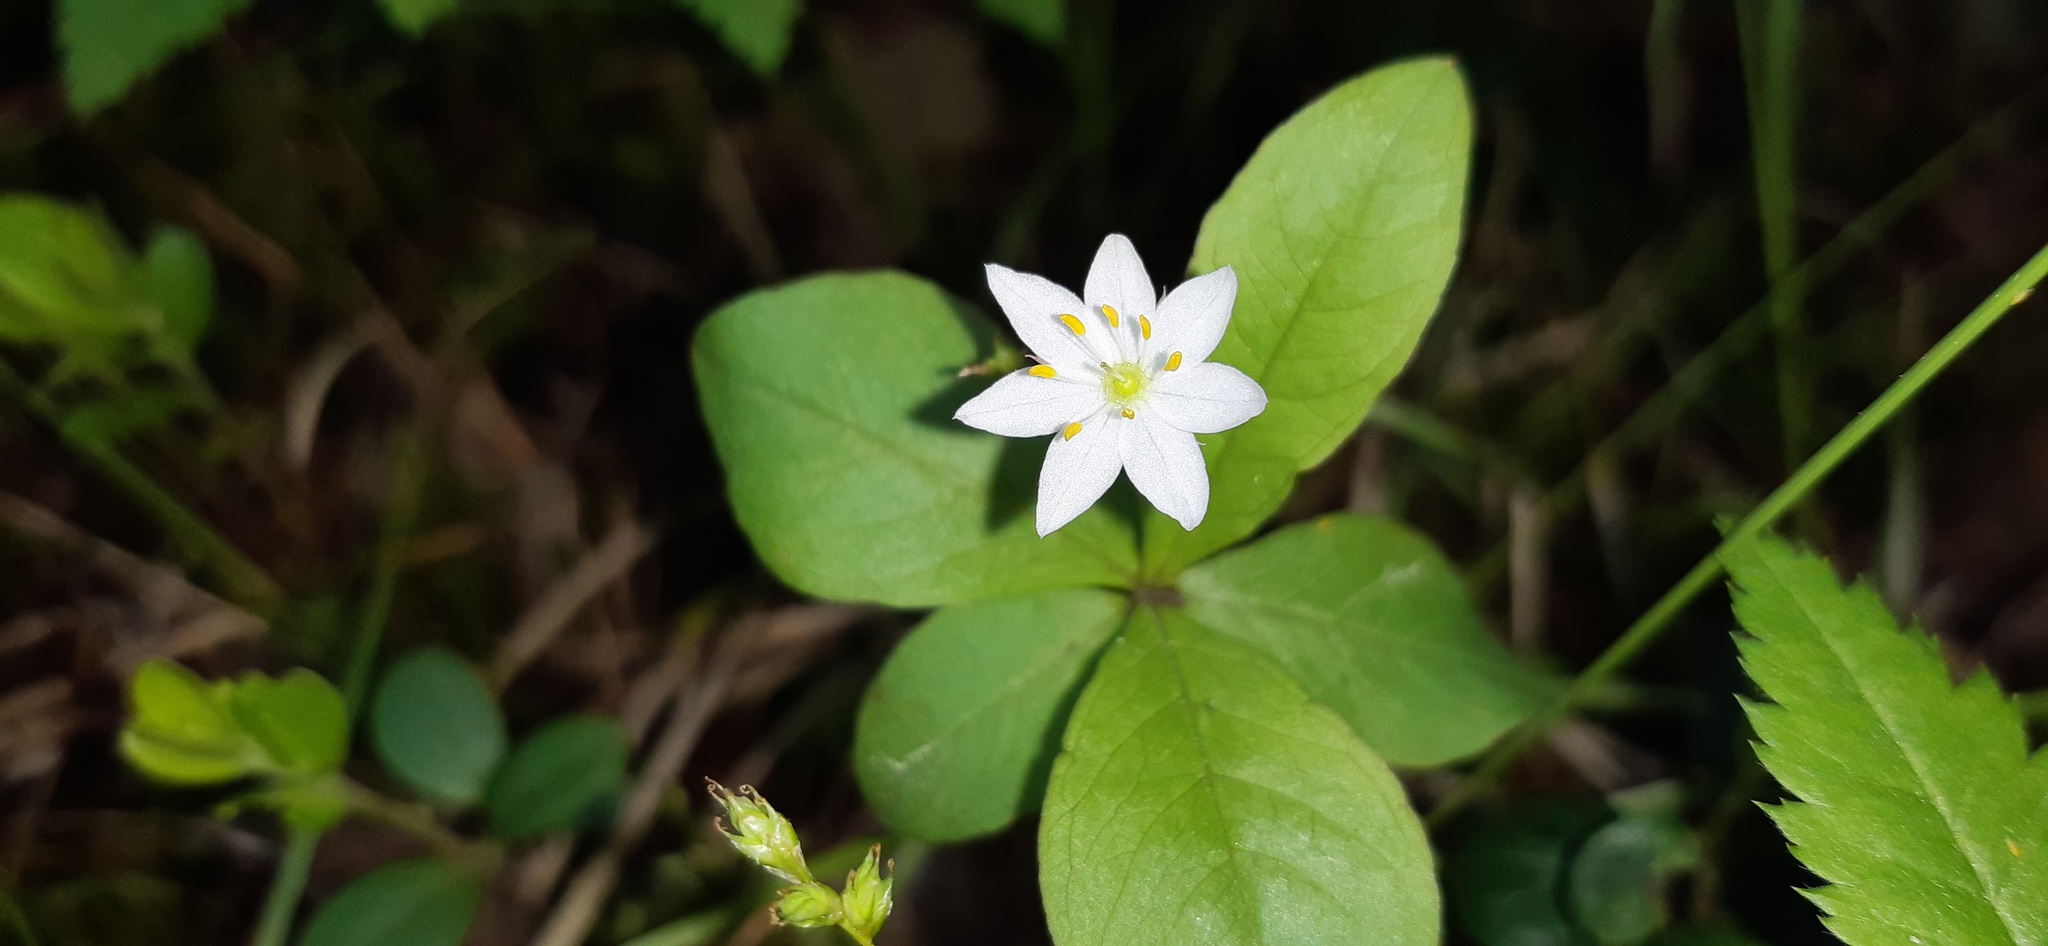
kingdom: Plantae
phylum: Tracheophyta
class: Magnoliopsida
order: Ericales
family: Primulaceae
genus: Lysimachia
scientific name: Lysimachia europaea
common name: Arctic starflower
